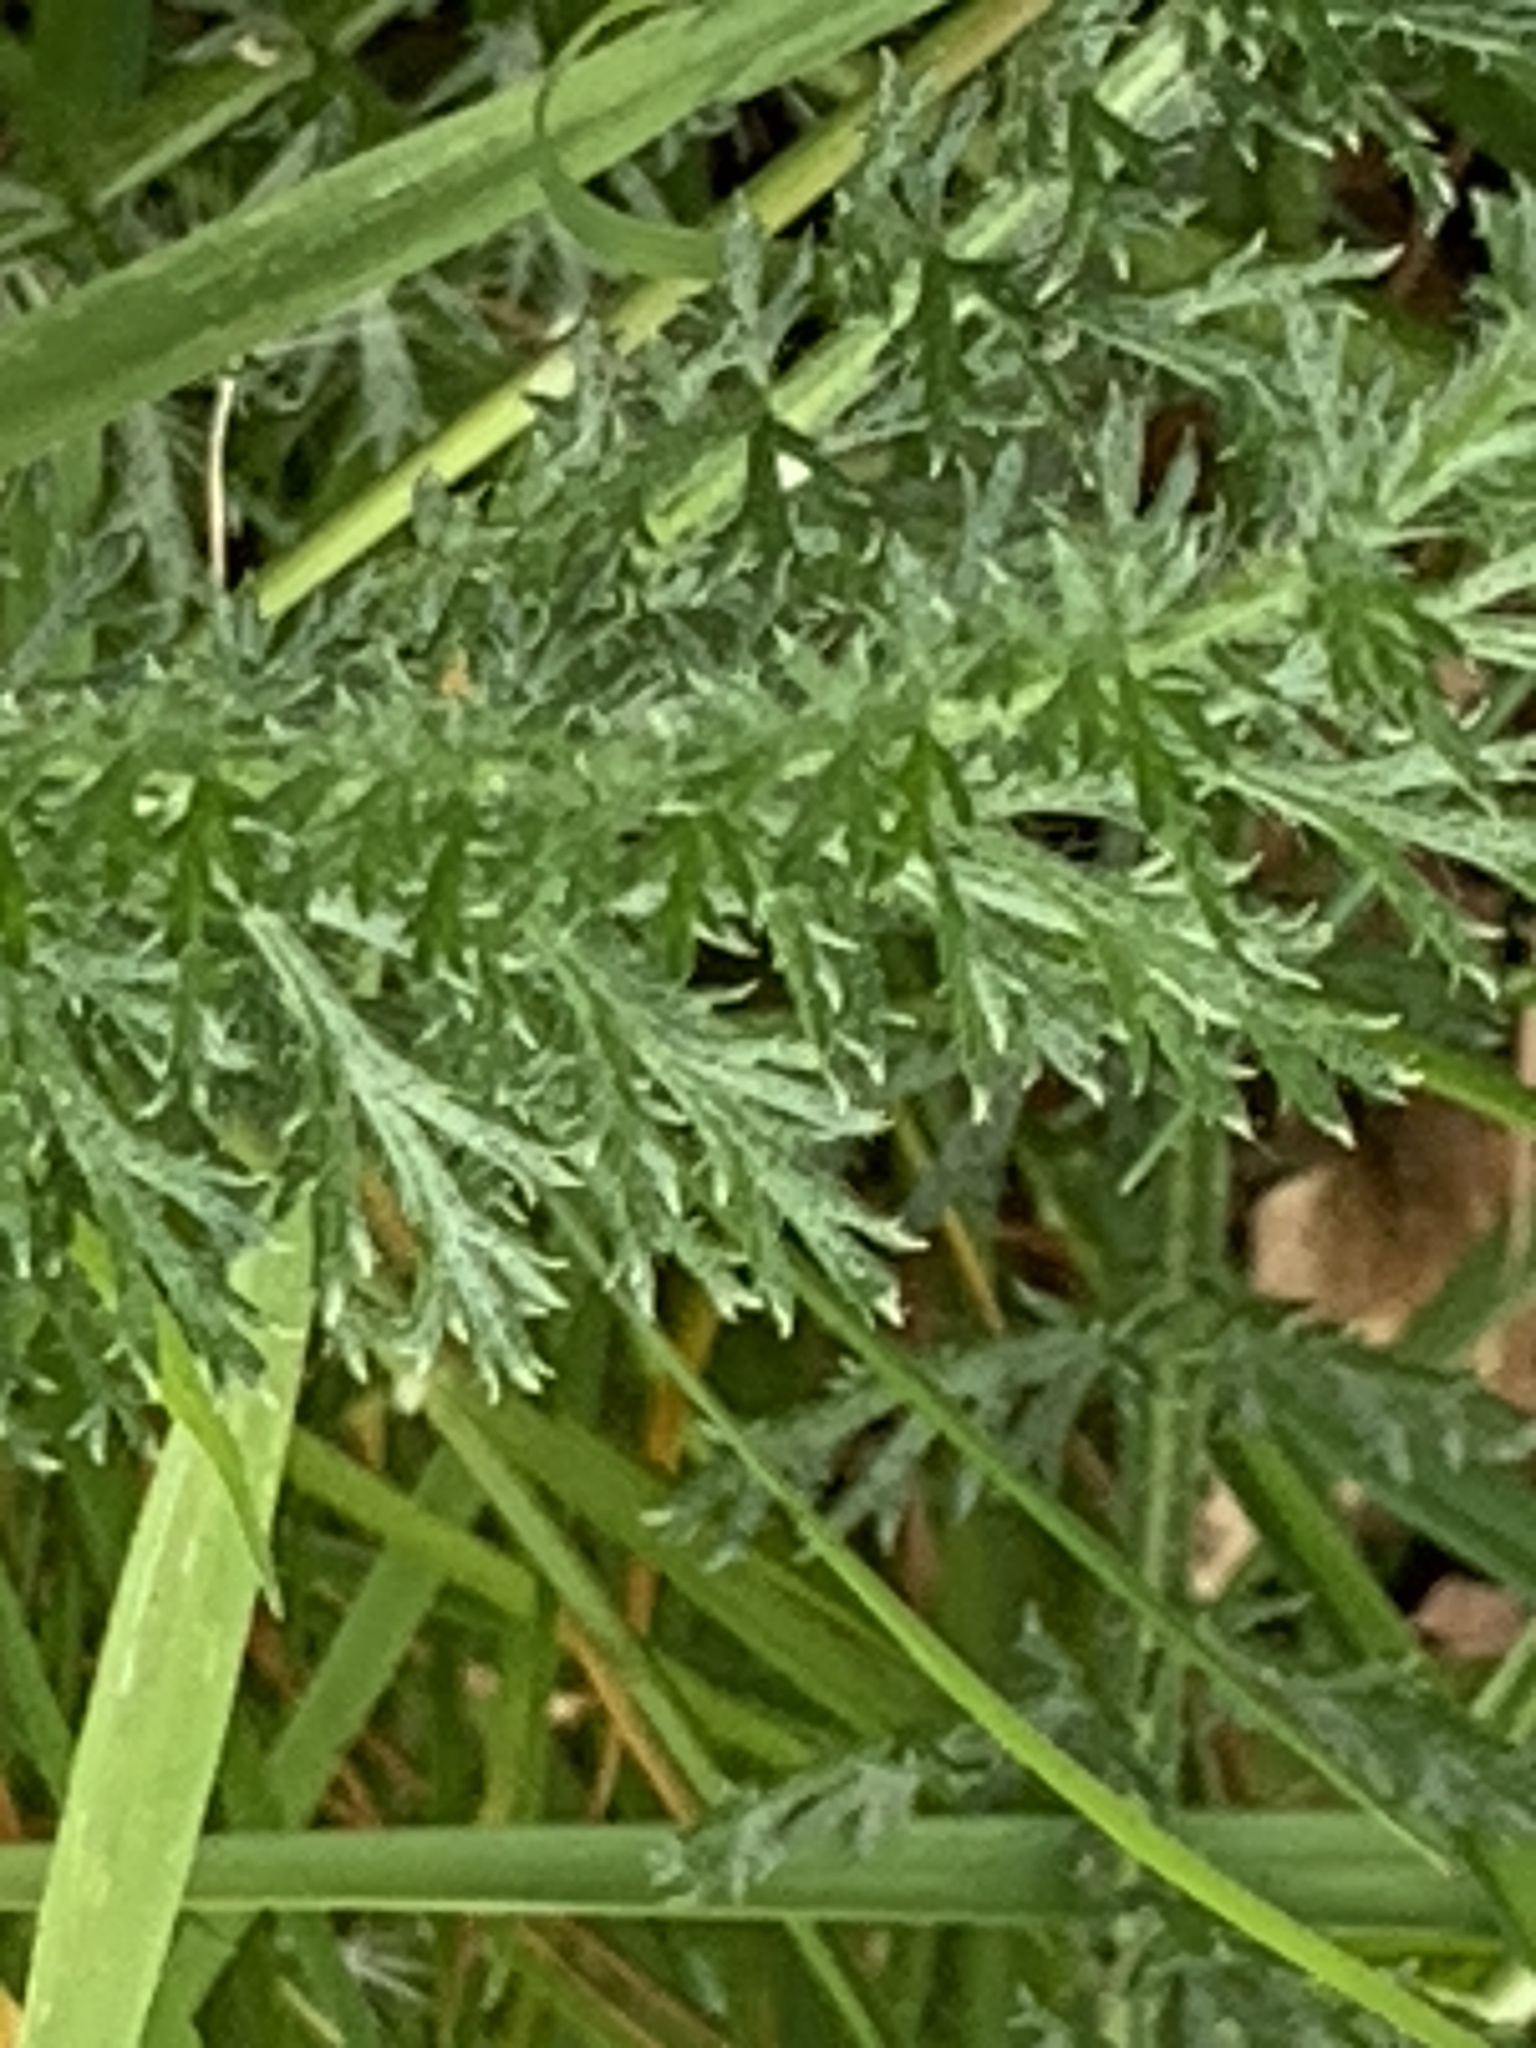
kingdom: Plantae
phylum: Tracheophyta
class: Magnoliopsida
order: Asterales
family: Asteraceae
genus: Achillea
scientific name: Achillea millefolium
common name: Yarrow
